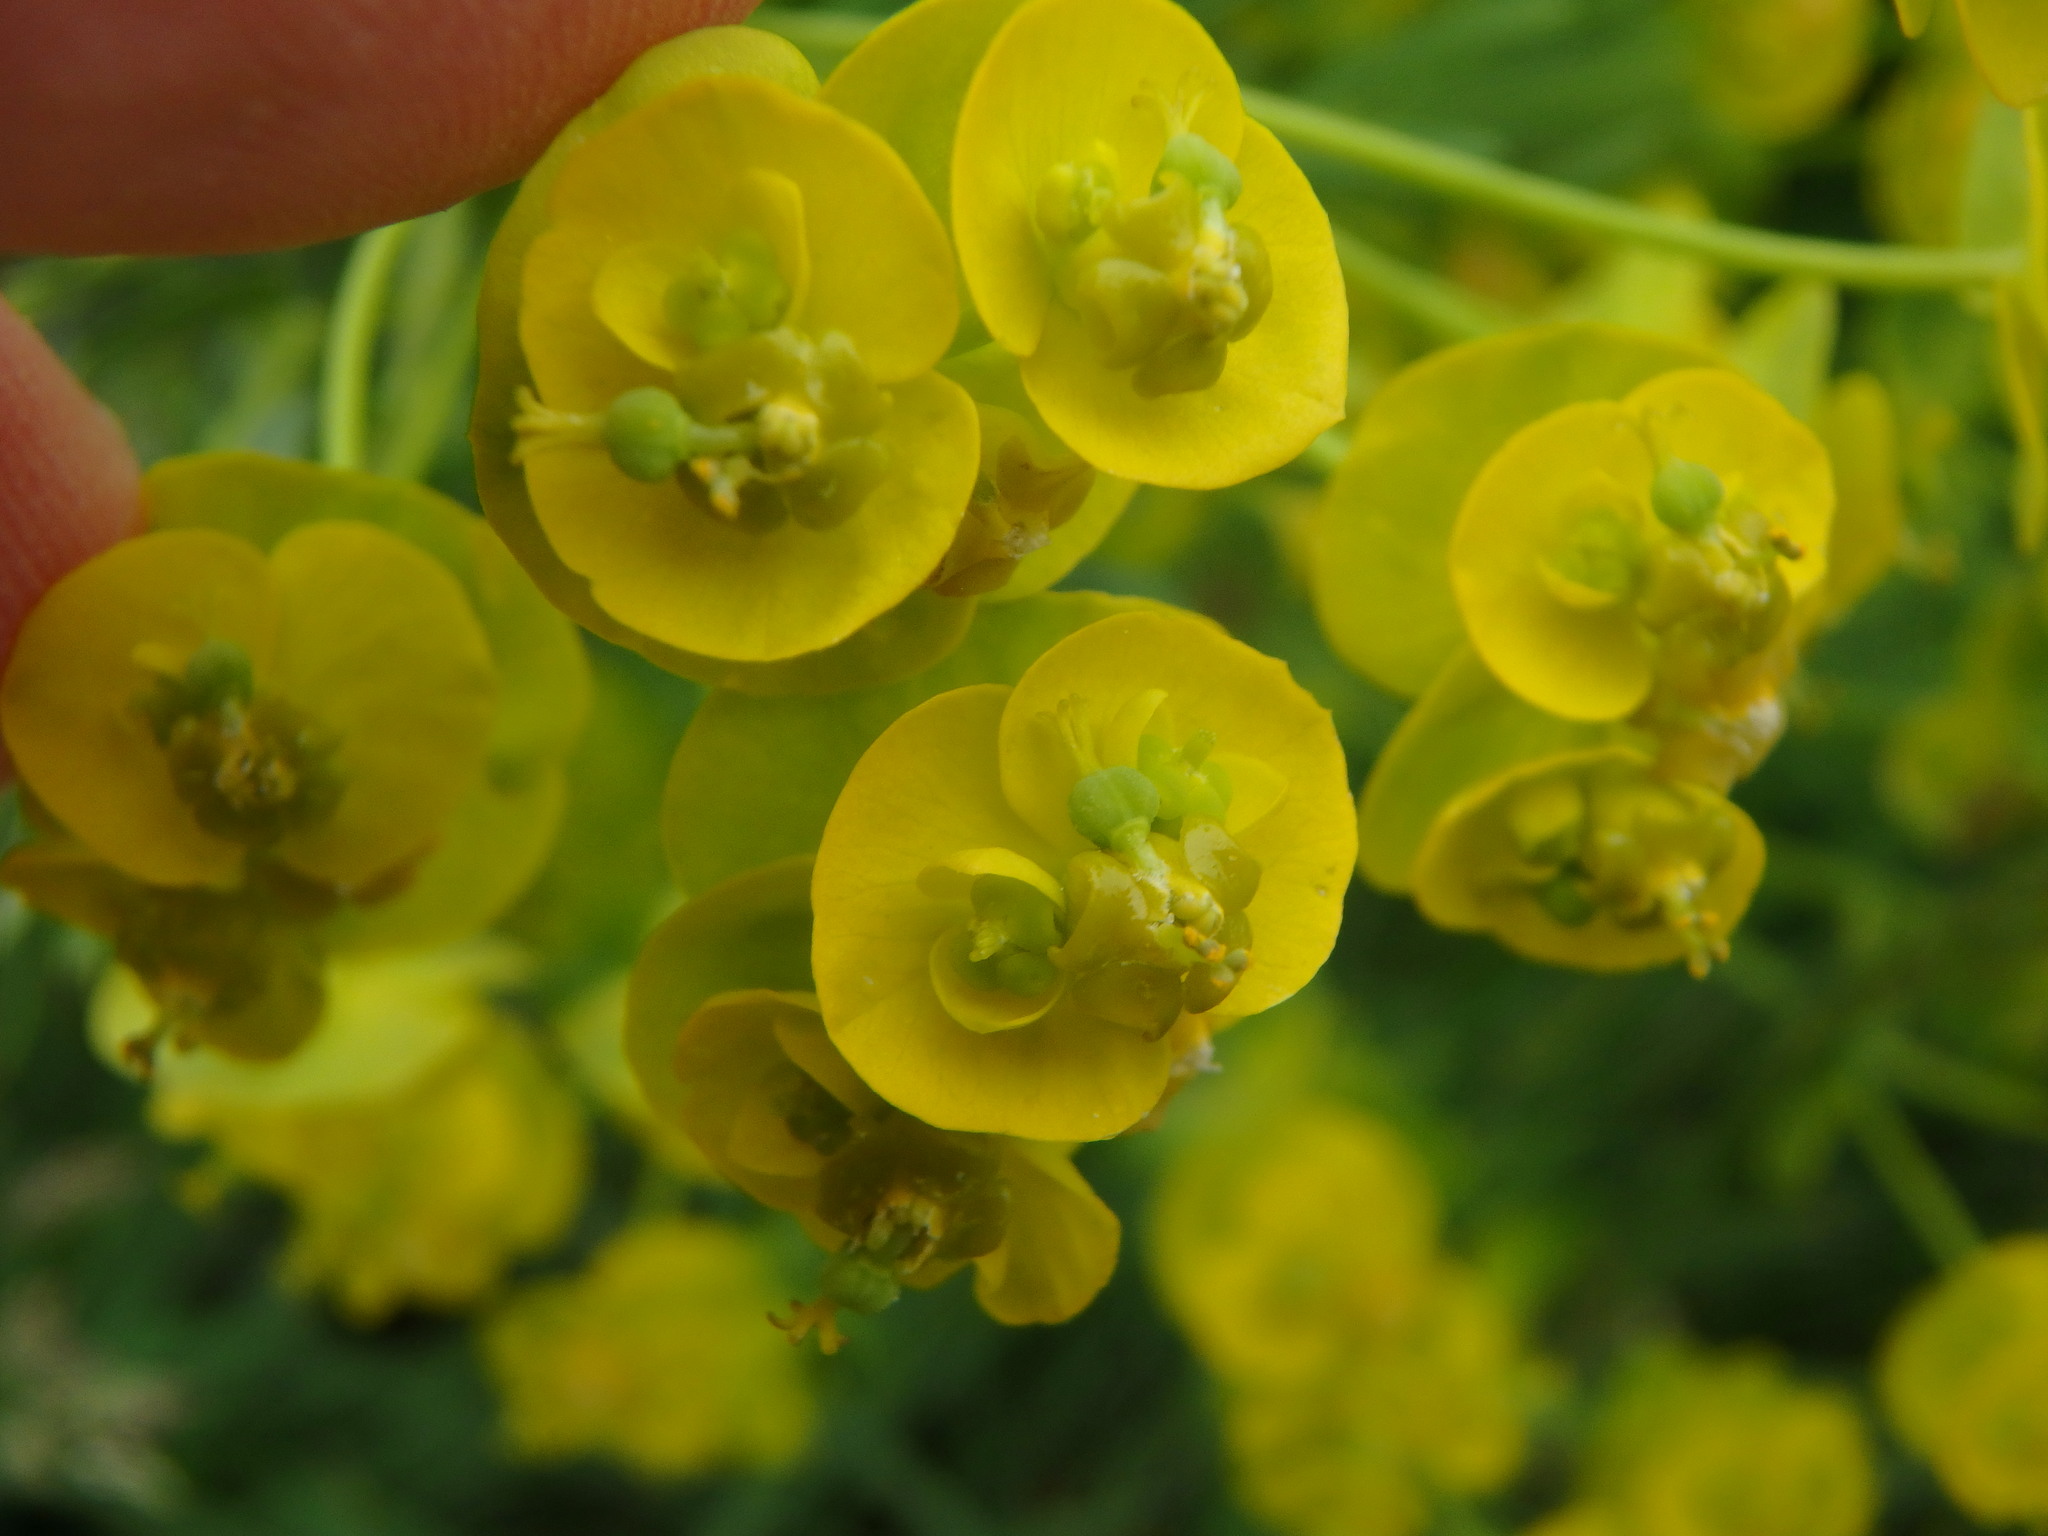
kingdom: Plantae
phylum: Tracheophyta
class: Magnoliopsida
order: Malpighiales
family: Euphorbiaceae
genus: Euphorbia
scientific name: Euphorbia cyparissias
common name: Cypress spurge
